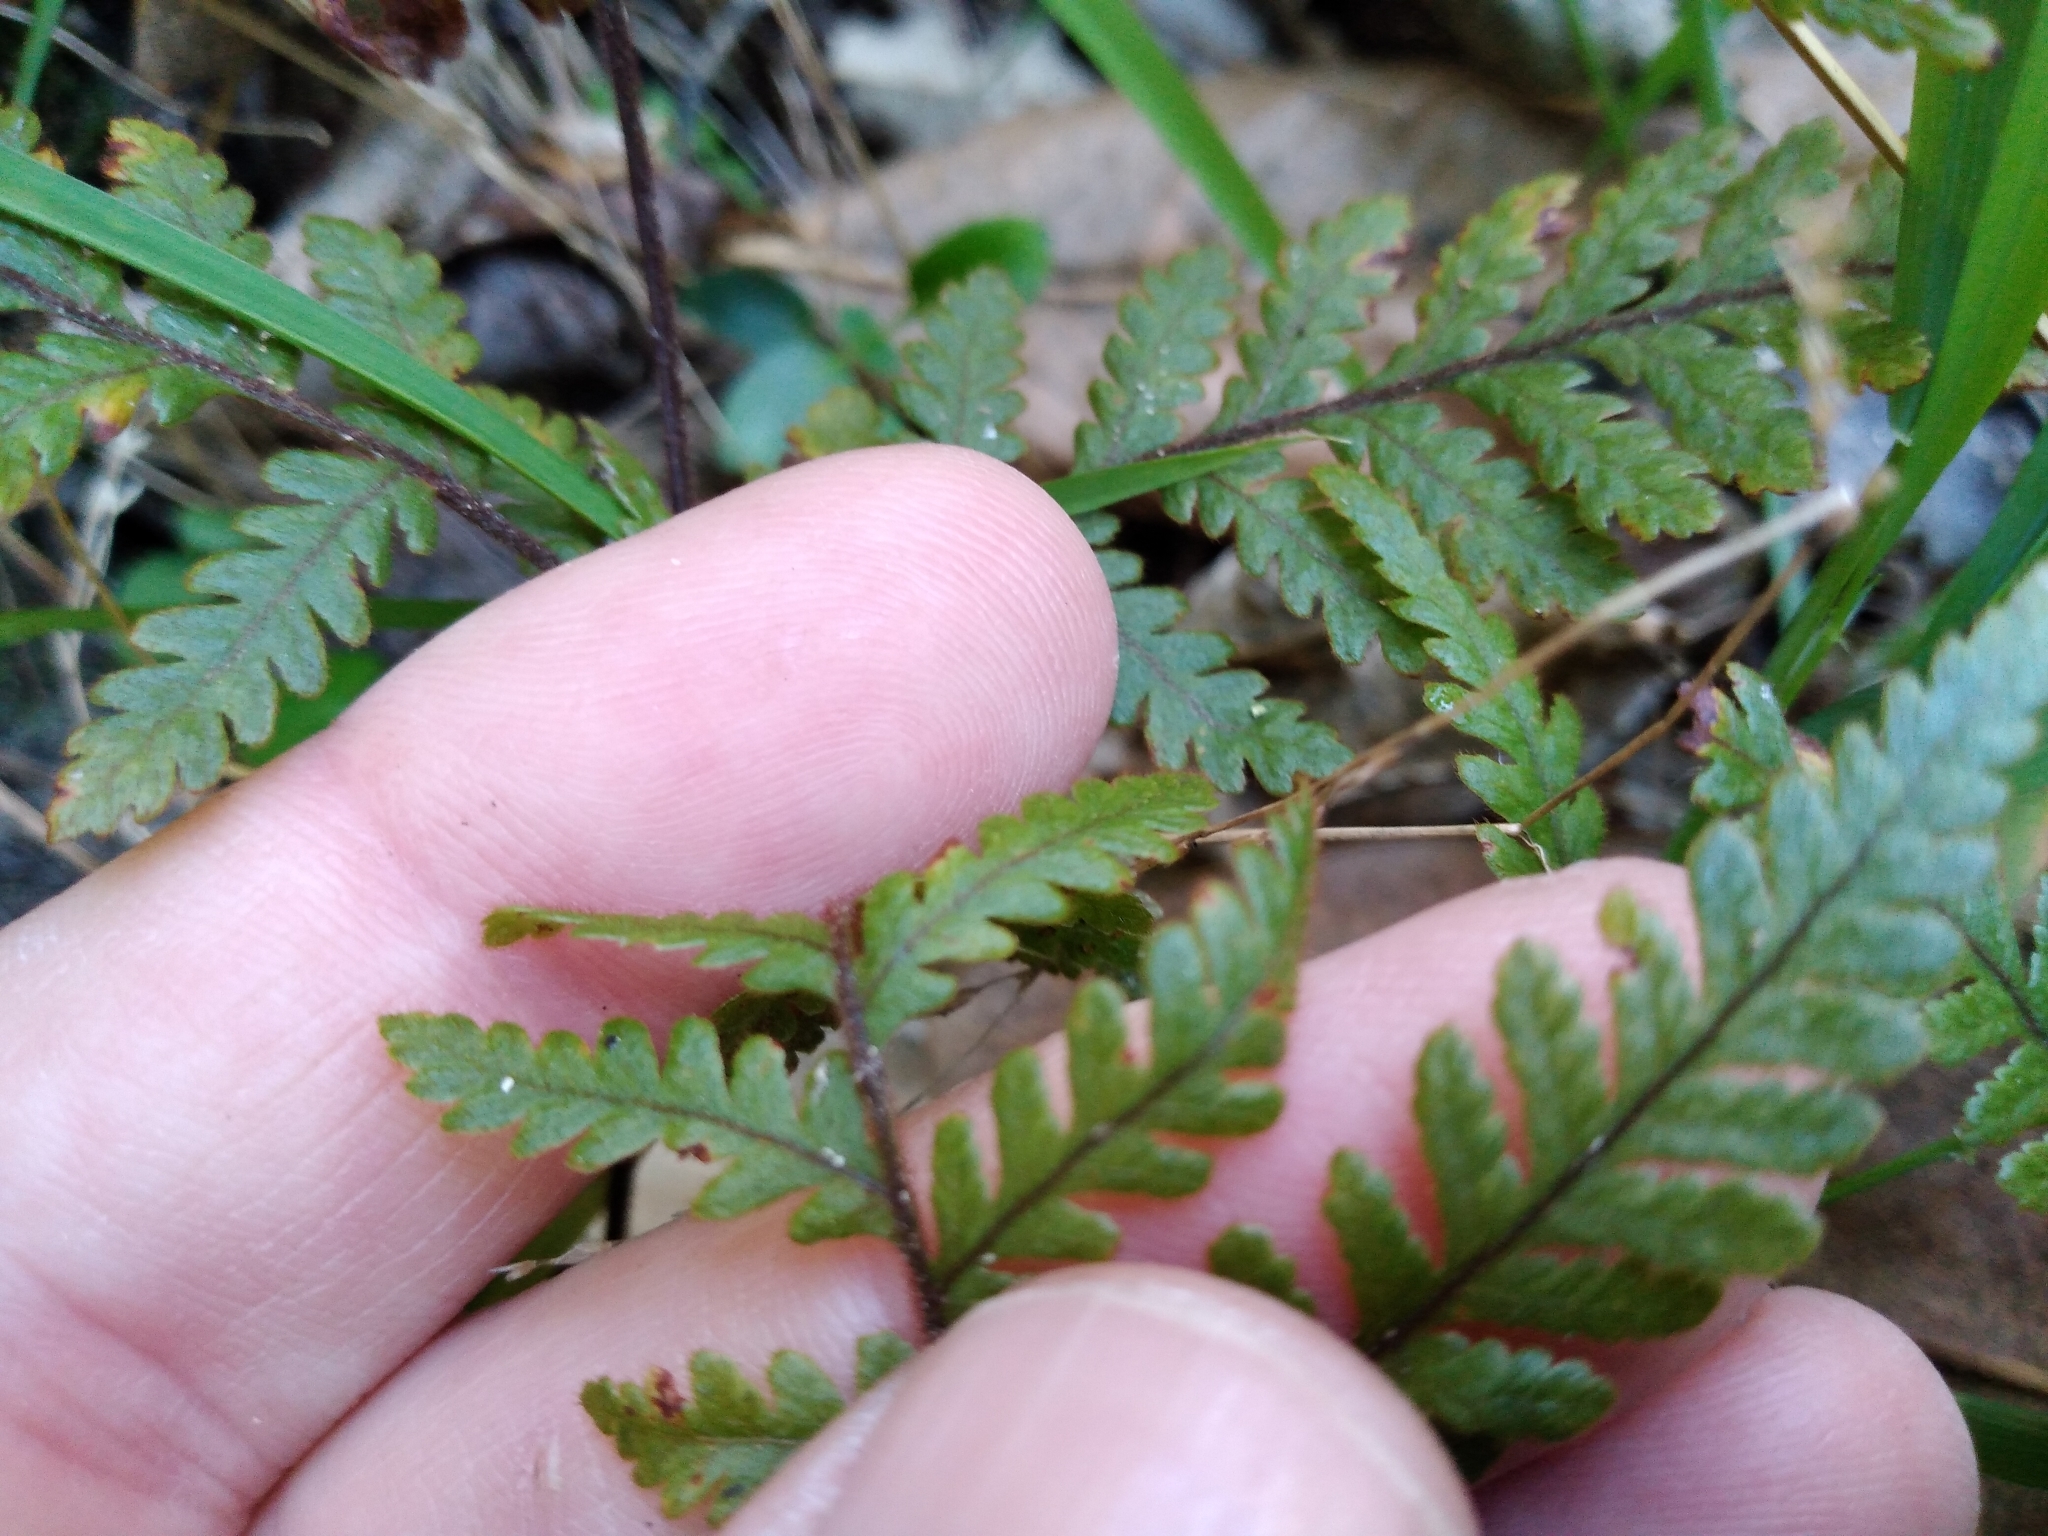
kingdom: Plantae
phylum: Tracheophyta
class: Polypodiopsida
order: Polypodiales
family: Dryopteridaceae
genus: Lastreopsis
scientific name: Lastreopsis velutina
